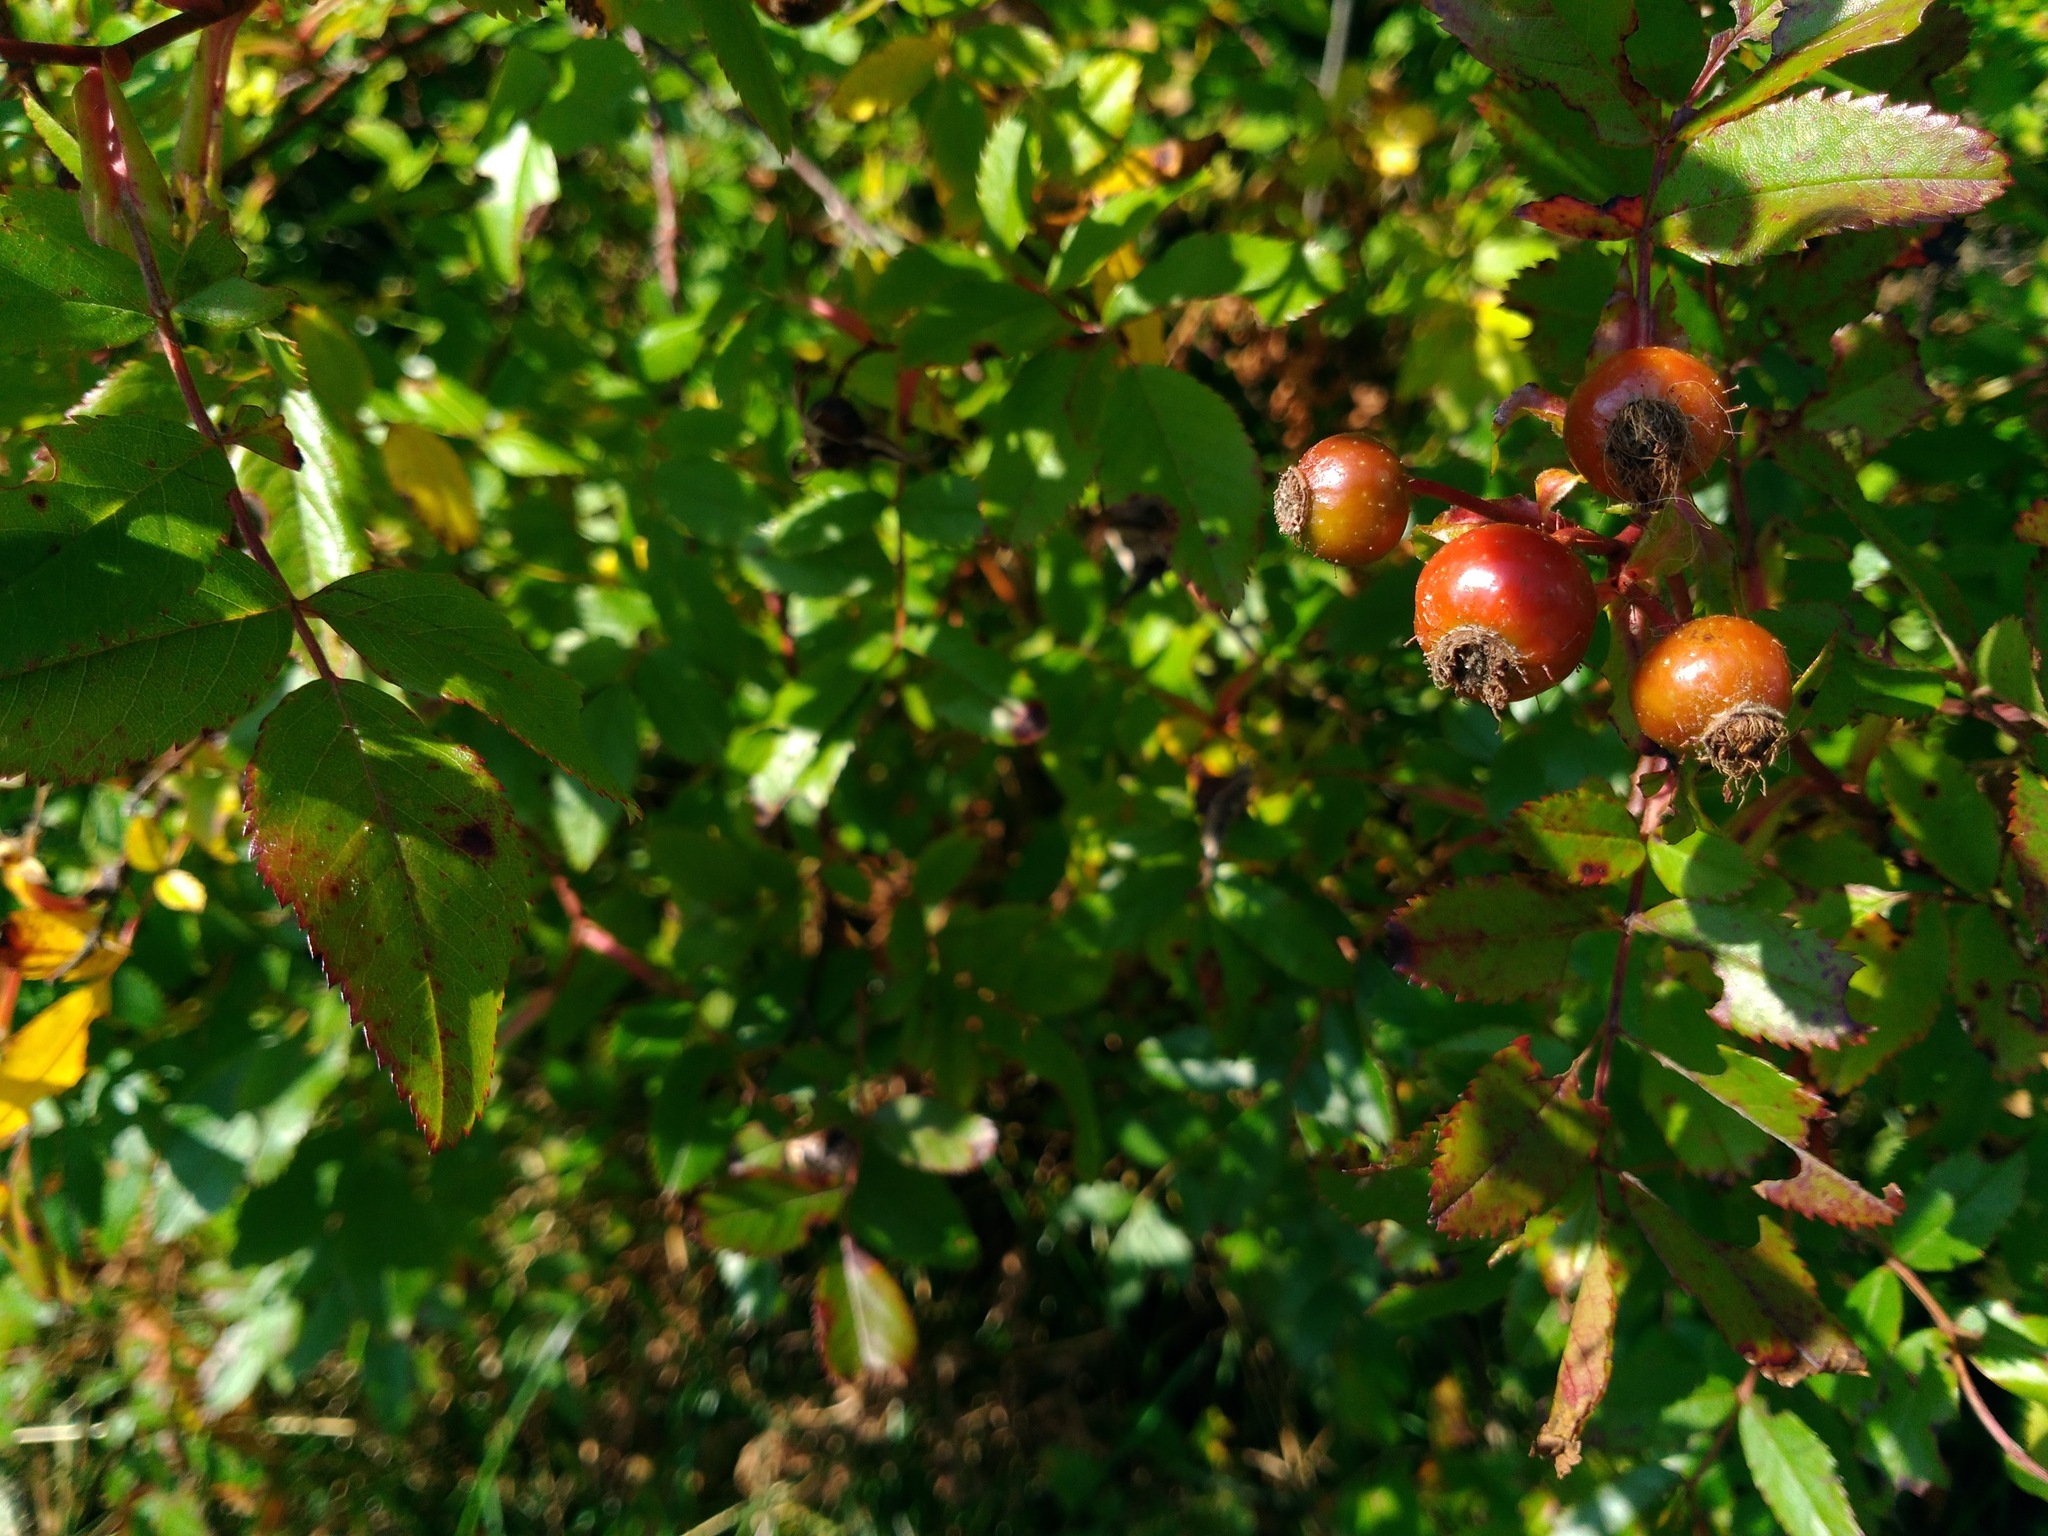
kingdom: Plantae
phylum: Tracheophyta
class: Magnoliopsida
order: Rosales
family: Rosaceae
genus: Rosa
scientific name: Rosa virginiana
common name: Virginian rose
